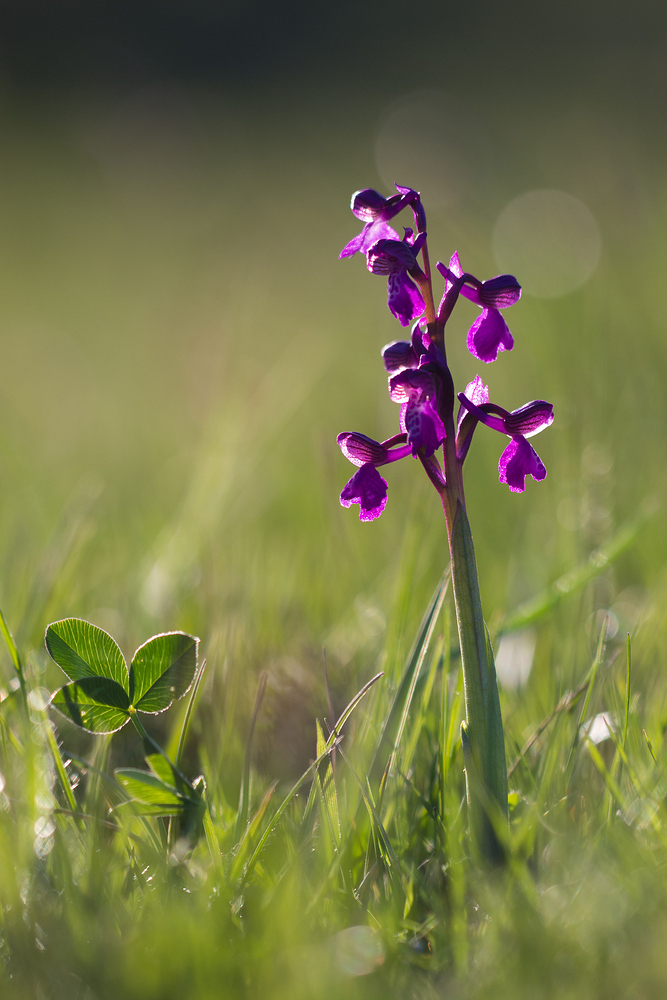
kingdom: Plantae
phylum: Tracheophyta
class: Liliopsida
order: Asparagales
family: Orchidaceae
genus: Anacamptis
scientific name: Anacamptis morio
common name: Green-winged orchid
